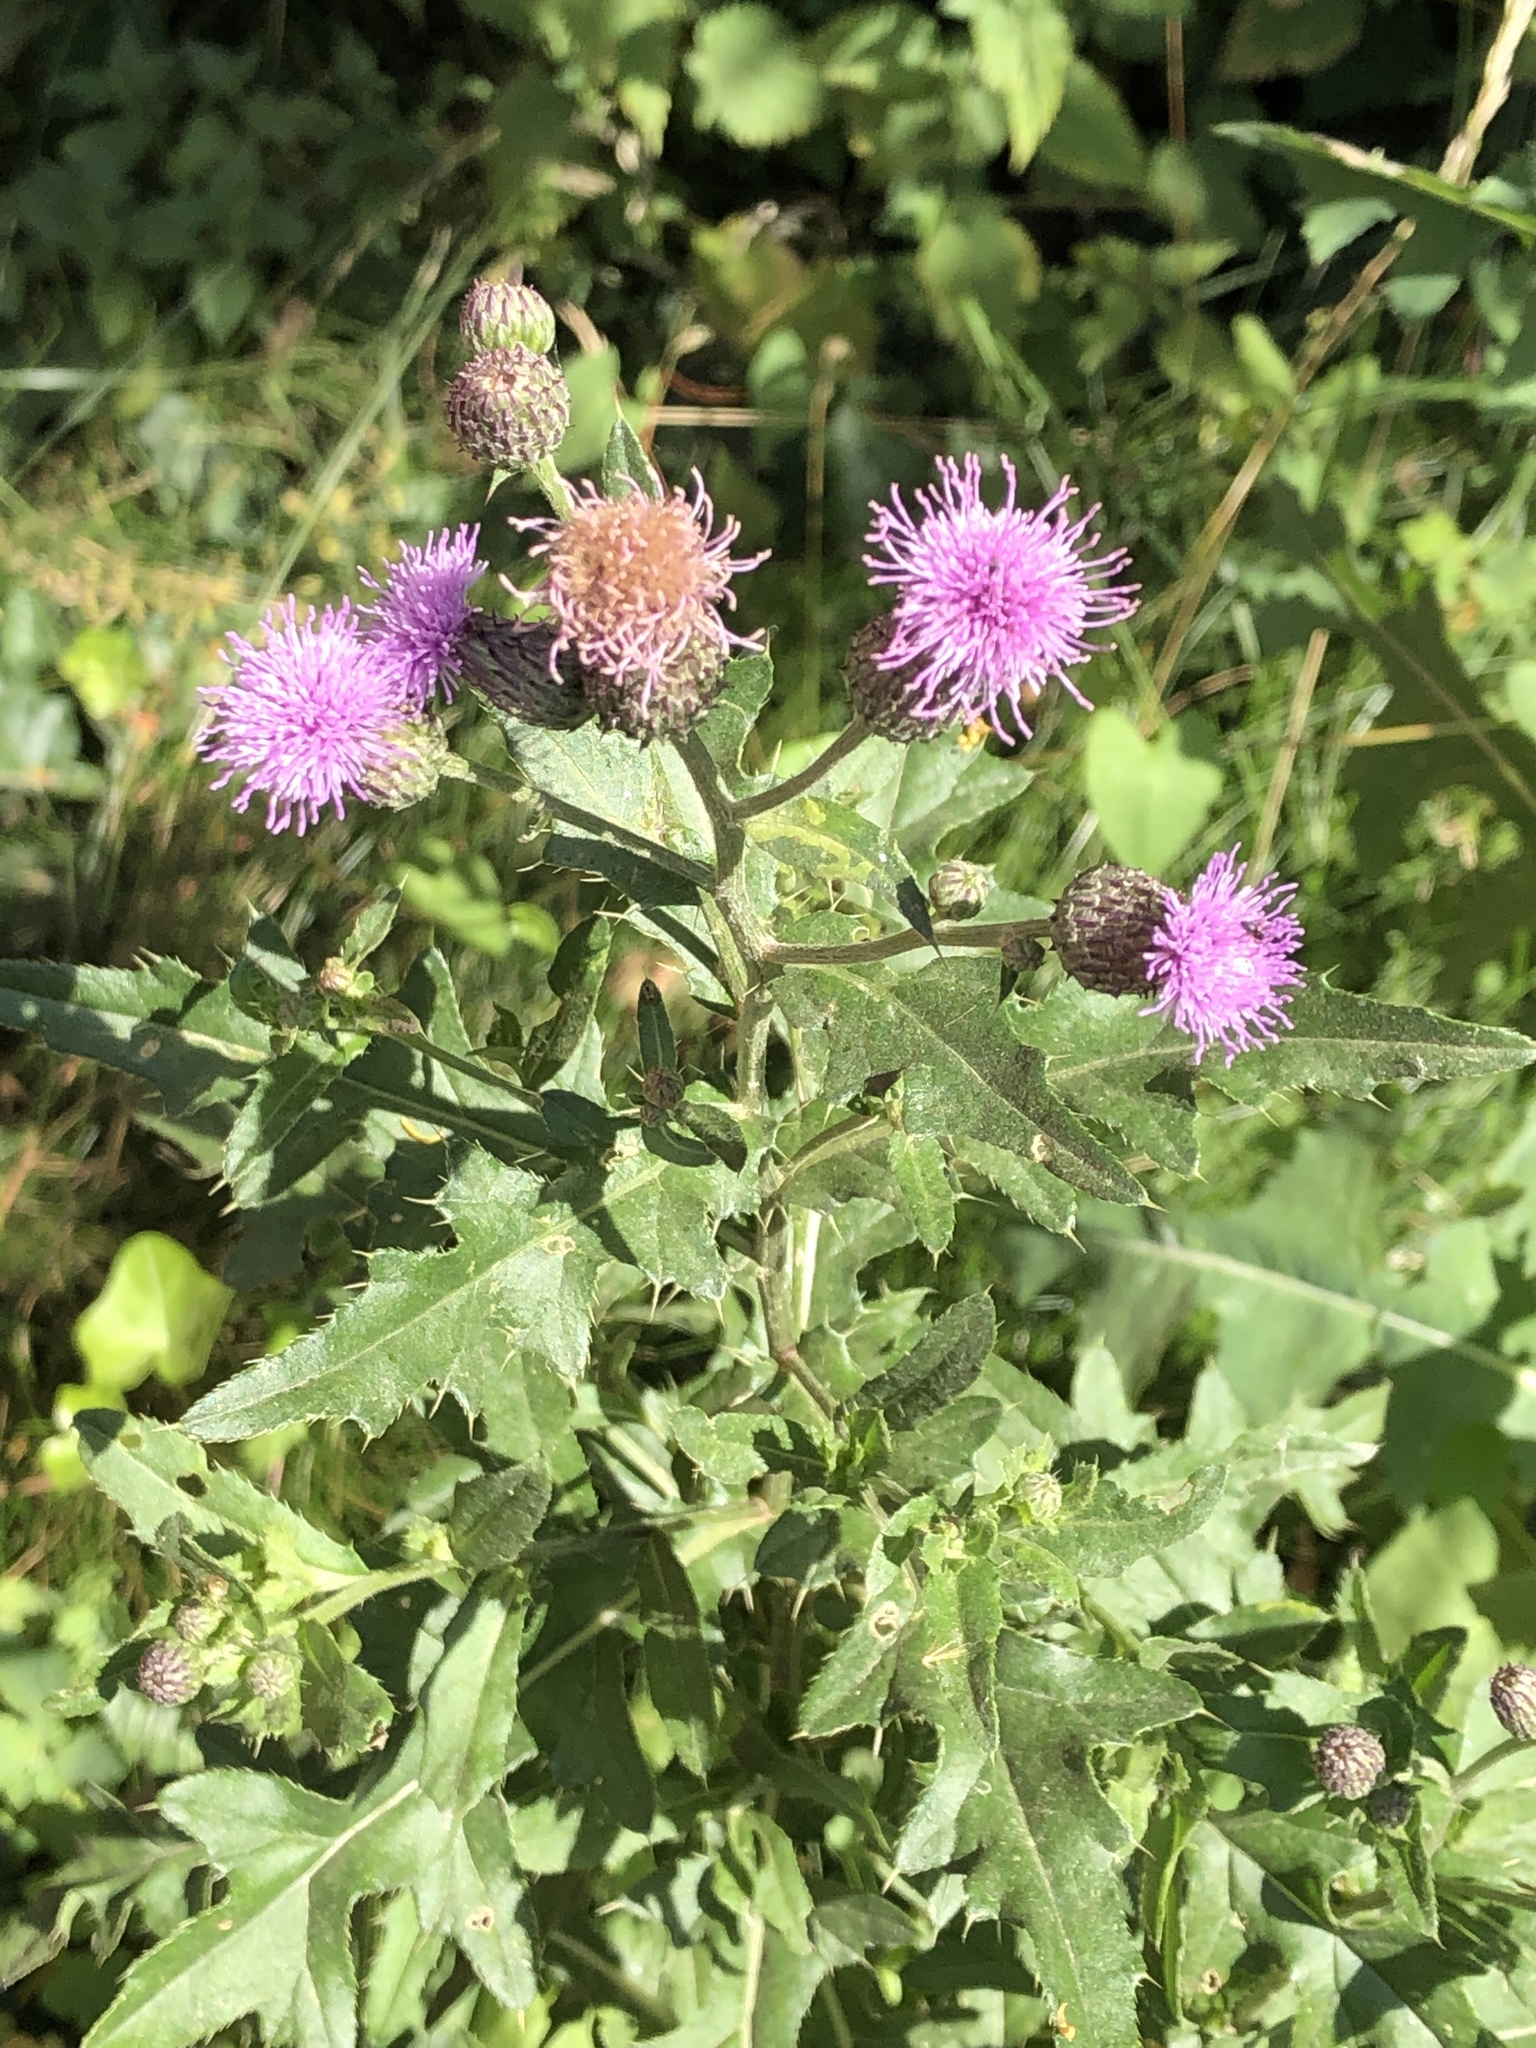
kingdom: Plantae
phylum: Tracheophyta
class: Magnoliopsida
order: Asterales
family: Asteraceae
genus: Cirsium
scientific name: Cirsium arvense
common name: Creeping thistle
